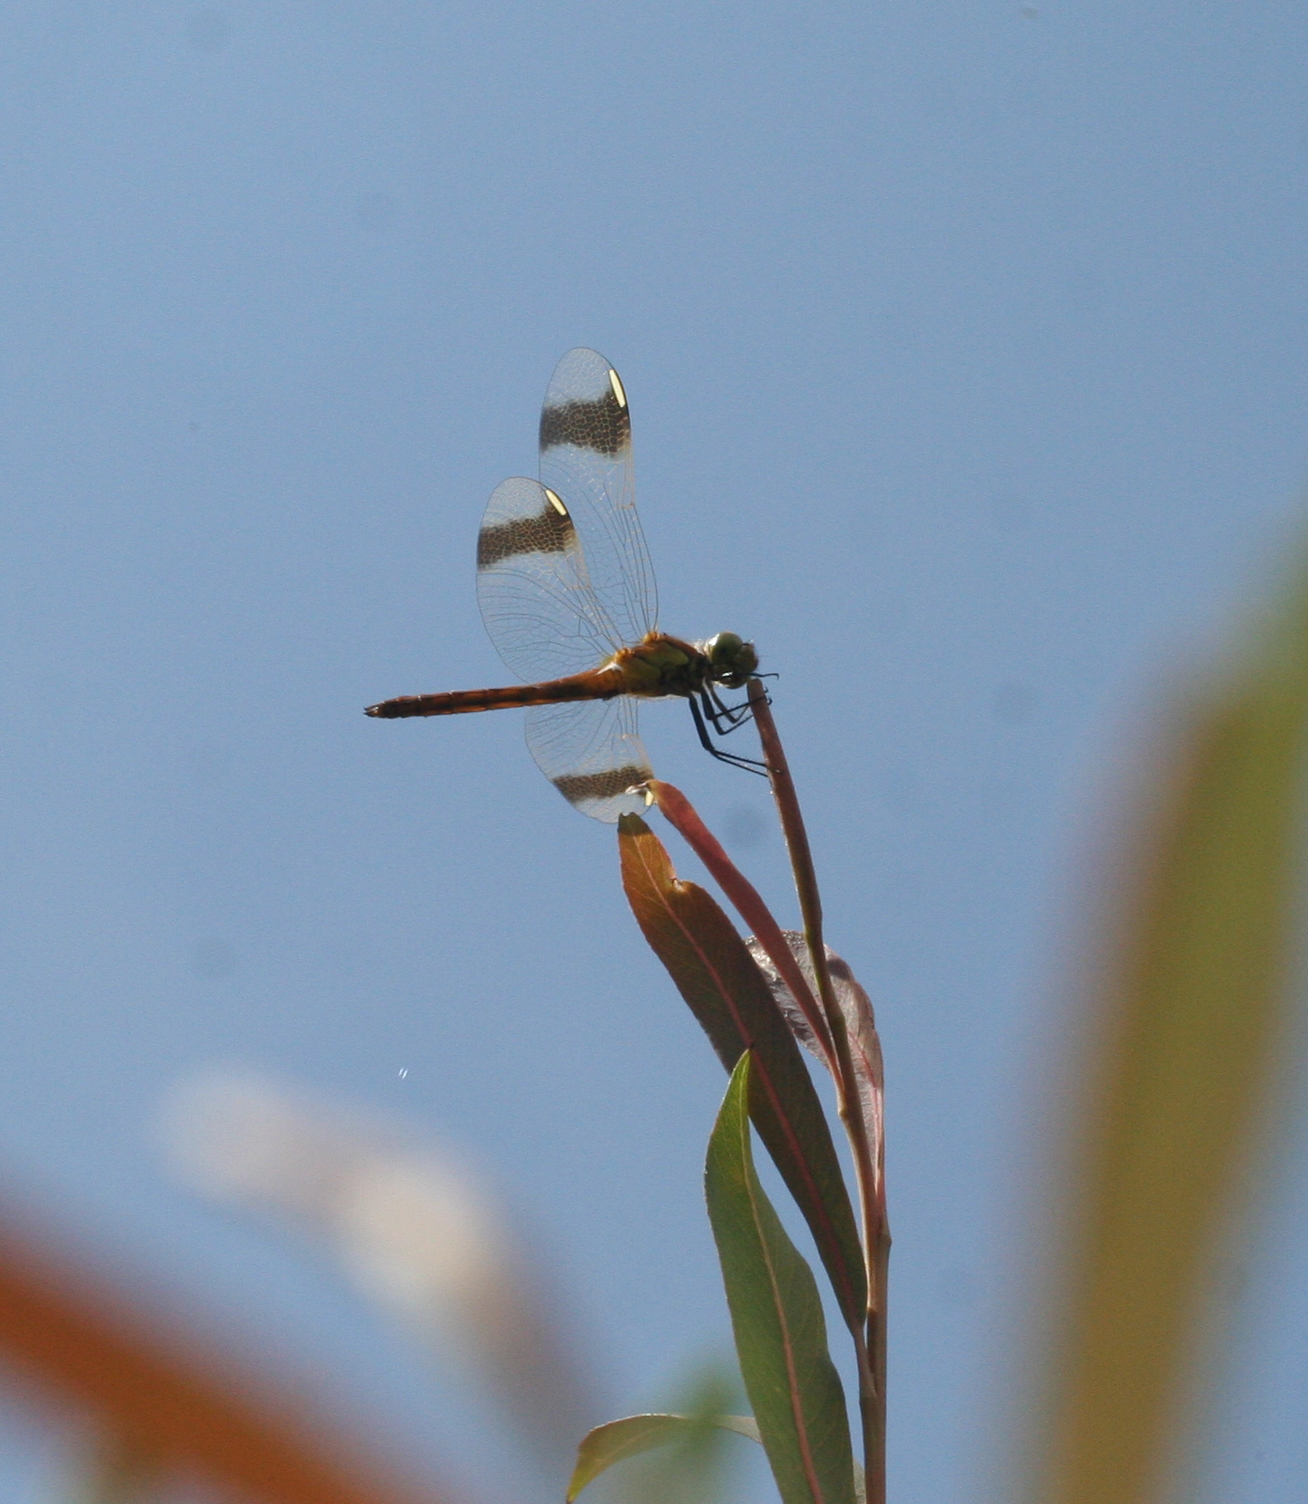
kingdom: Animalia
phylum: Arthropoda
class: Insecta
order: Odonata
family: Libellulidae
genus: Sympetrum
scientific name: Sympetrum pedemontanum
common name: Banded darter
